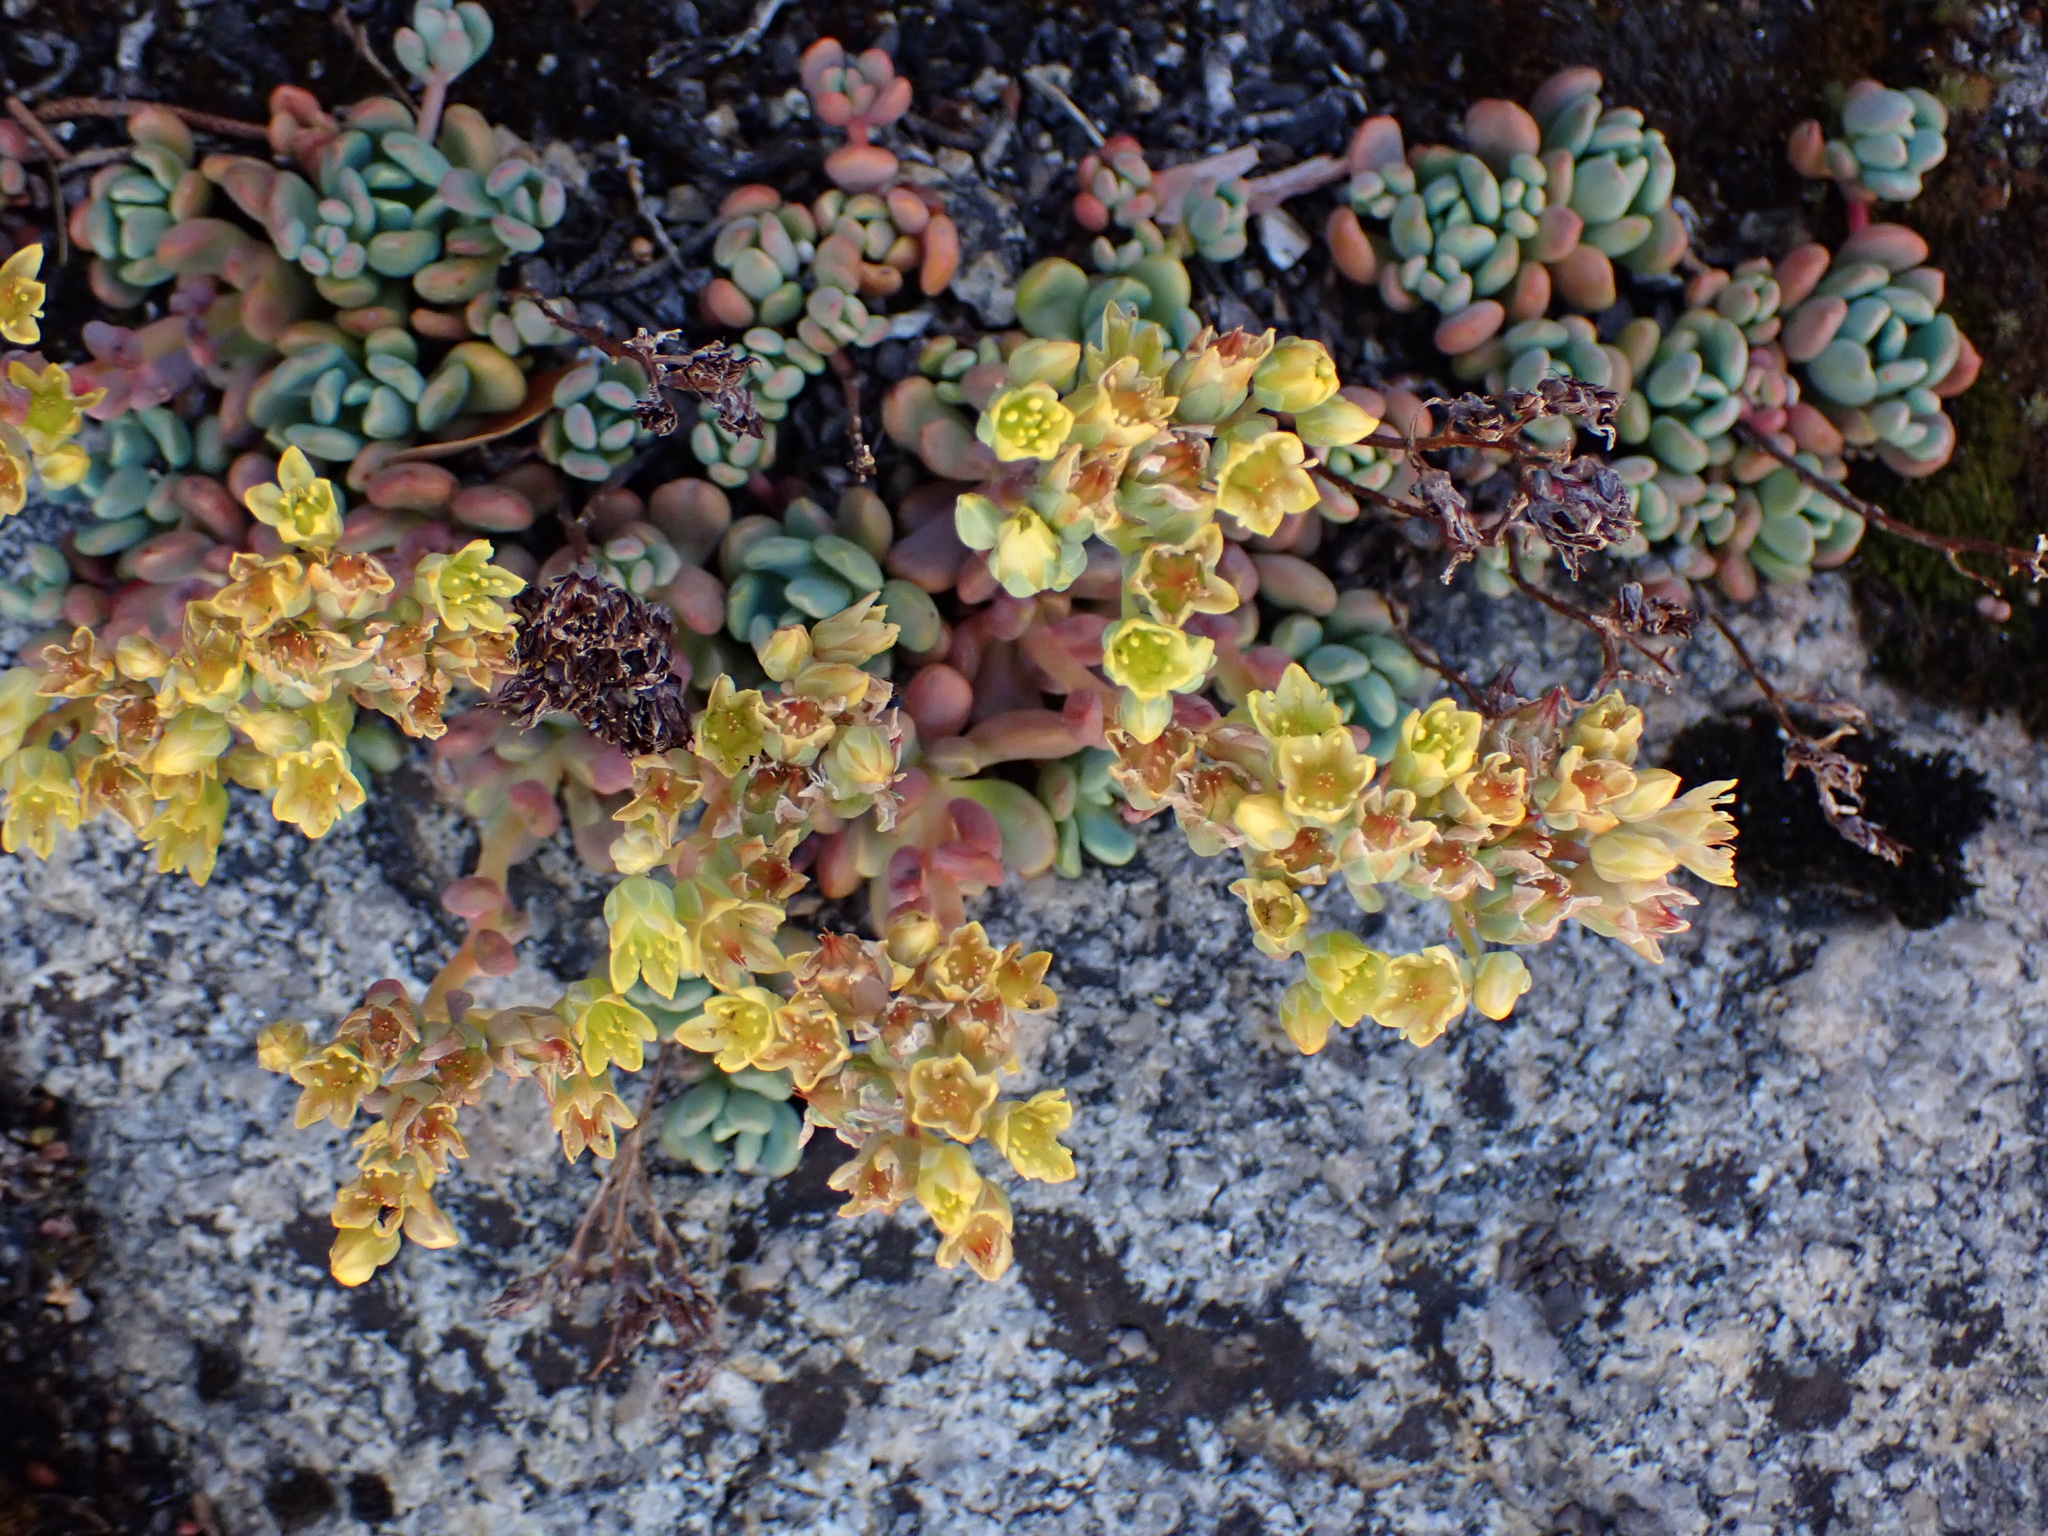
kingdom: Plantae
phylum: Tracheophyta
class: Magnoliopsida
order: Saxifragales
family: Crassulaceae
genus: Sedum
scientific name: Sedum obtusatum
